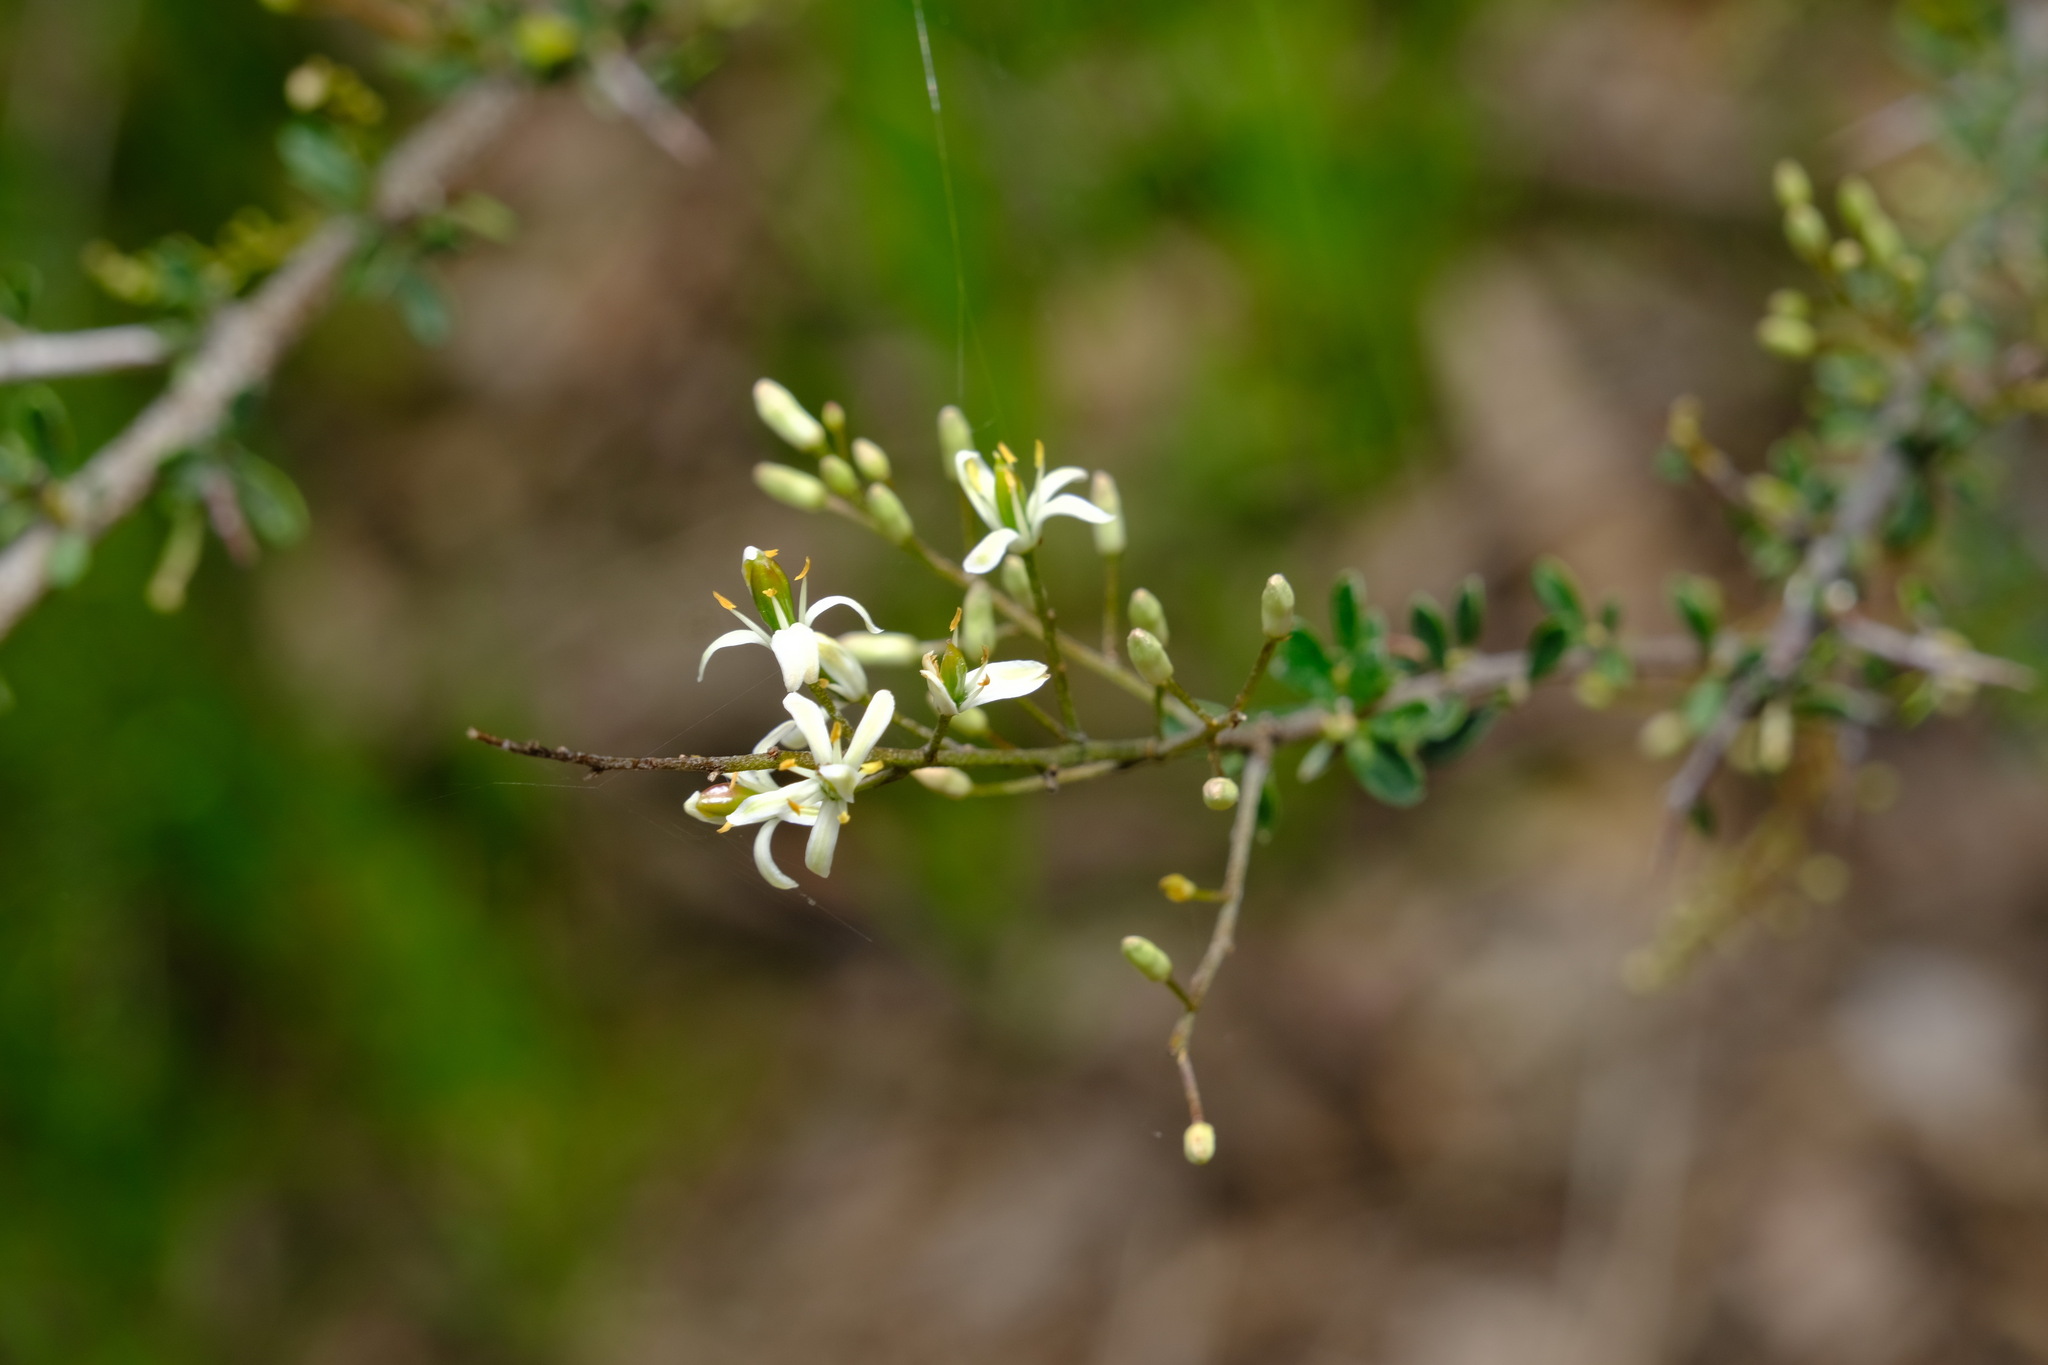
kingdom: Plantae
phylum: Tracheophyta
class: Magnoliopsida
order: Apiales
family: Pittosporaceae
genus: Bursaria
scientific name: Bursaria spinosa
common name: Australian blackthorn
